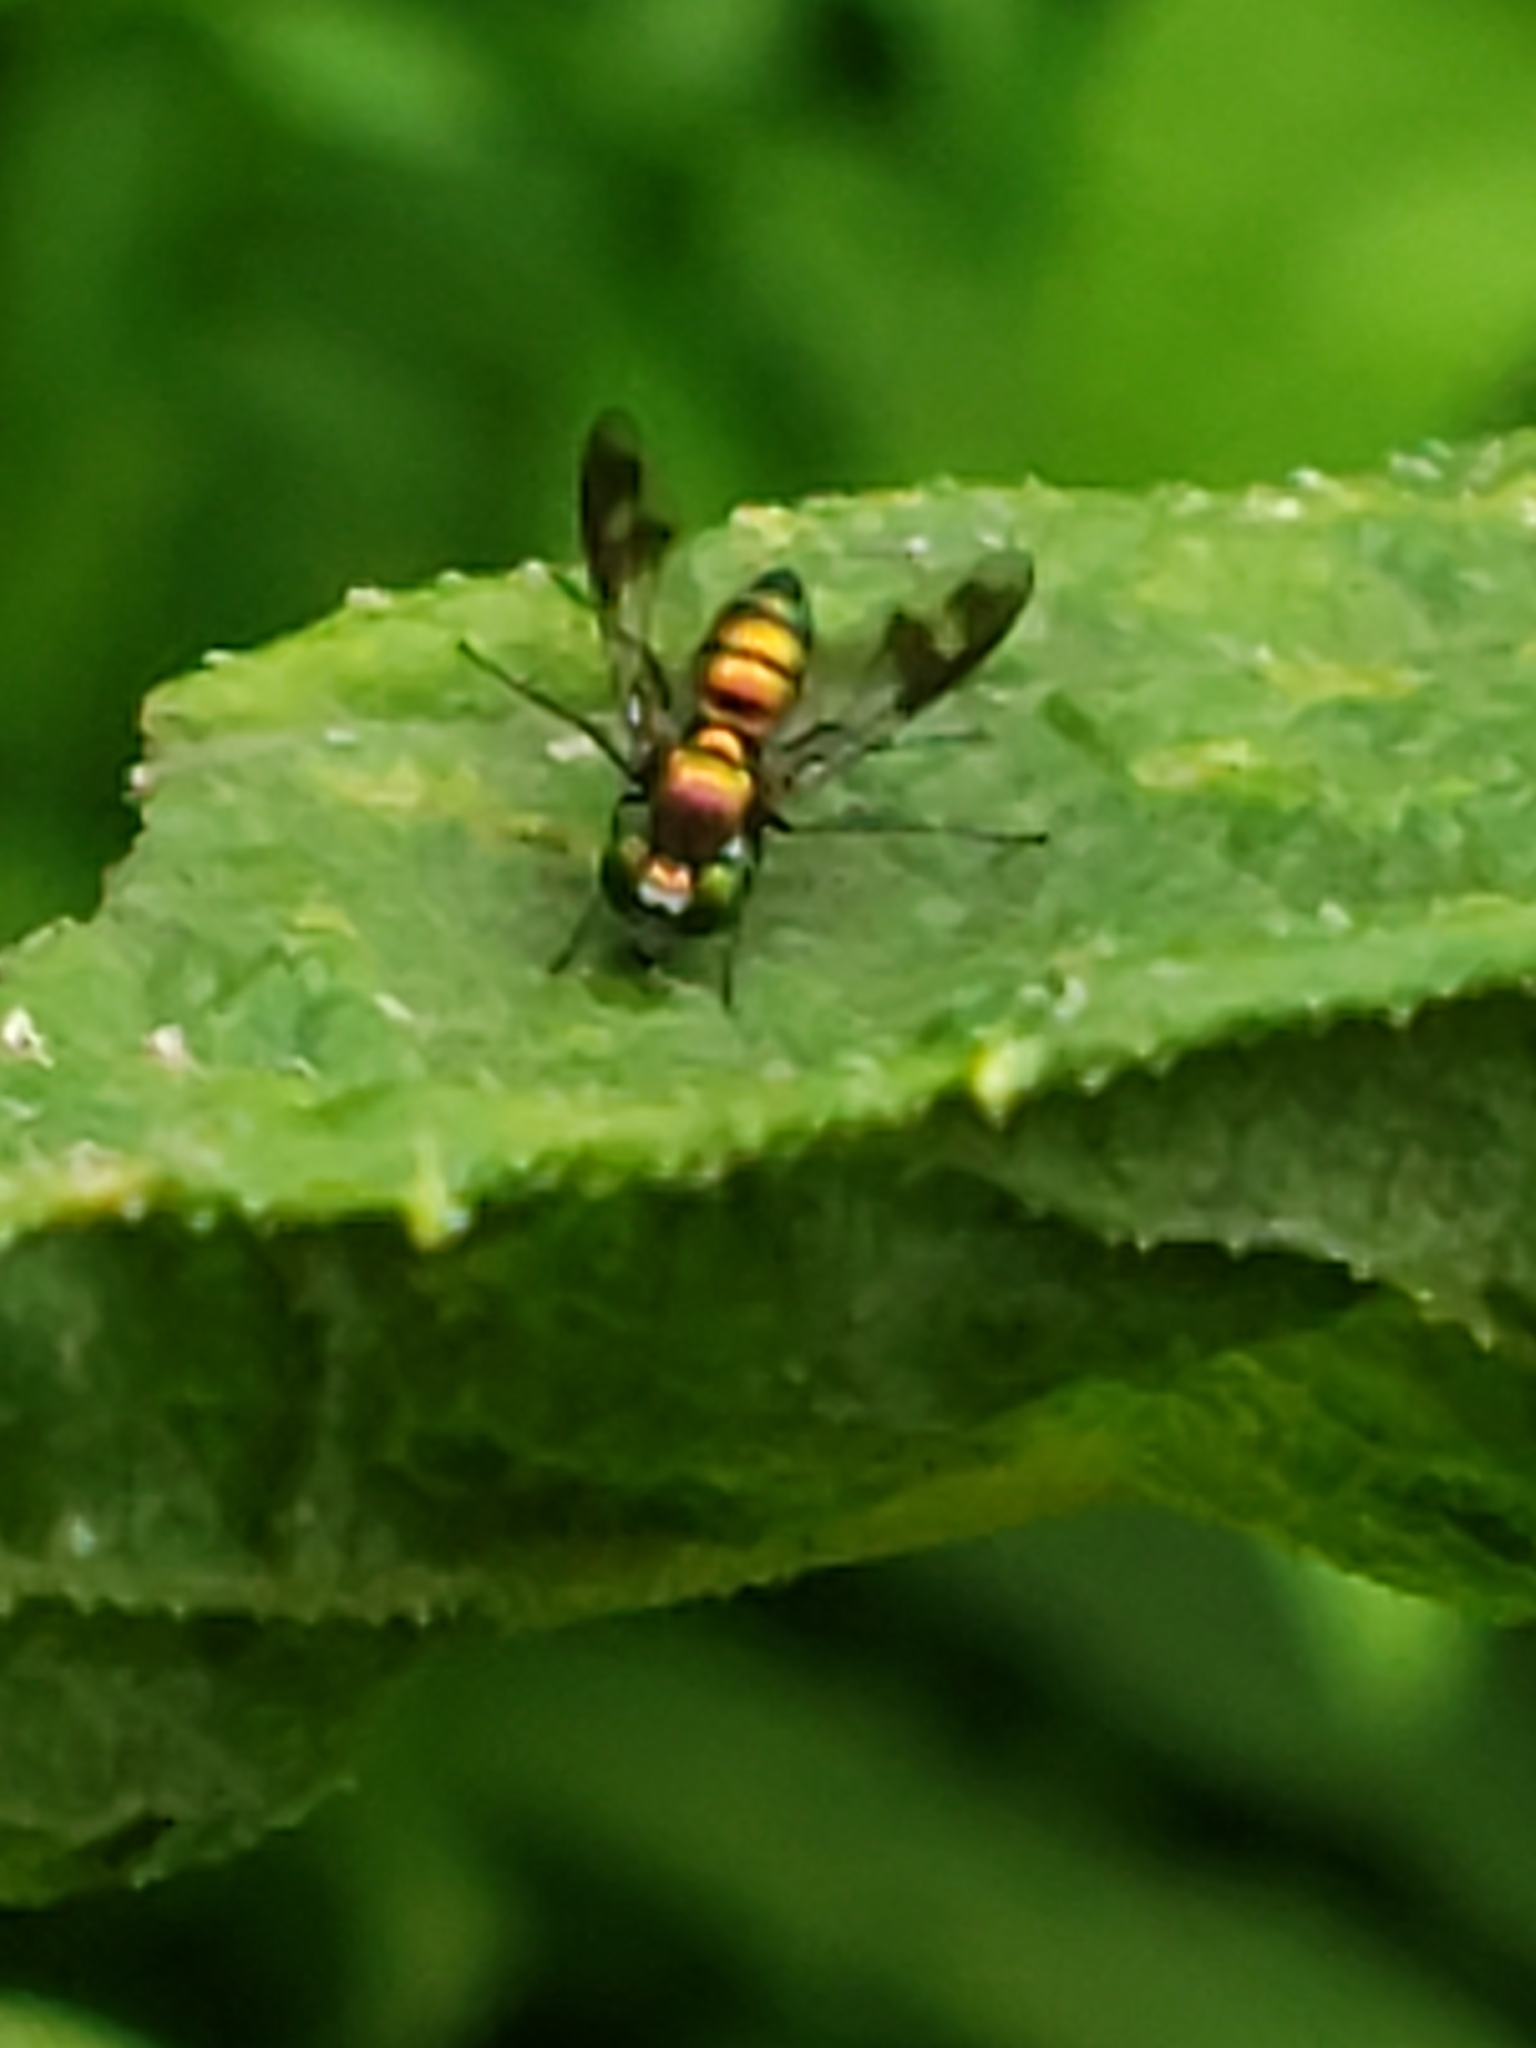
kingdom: Animalia
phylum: Arthropoda
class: Insecta
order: Diptera
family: Dolichopodidae
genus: Condylostylus
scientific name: Condylostylus patibulatus
